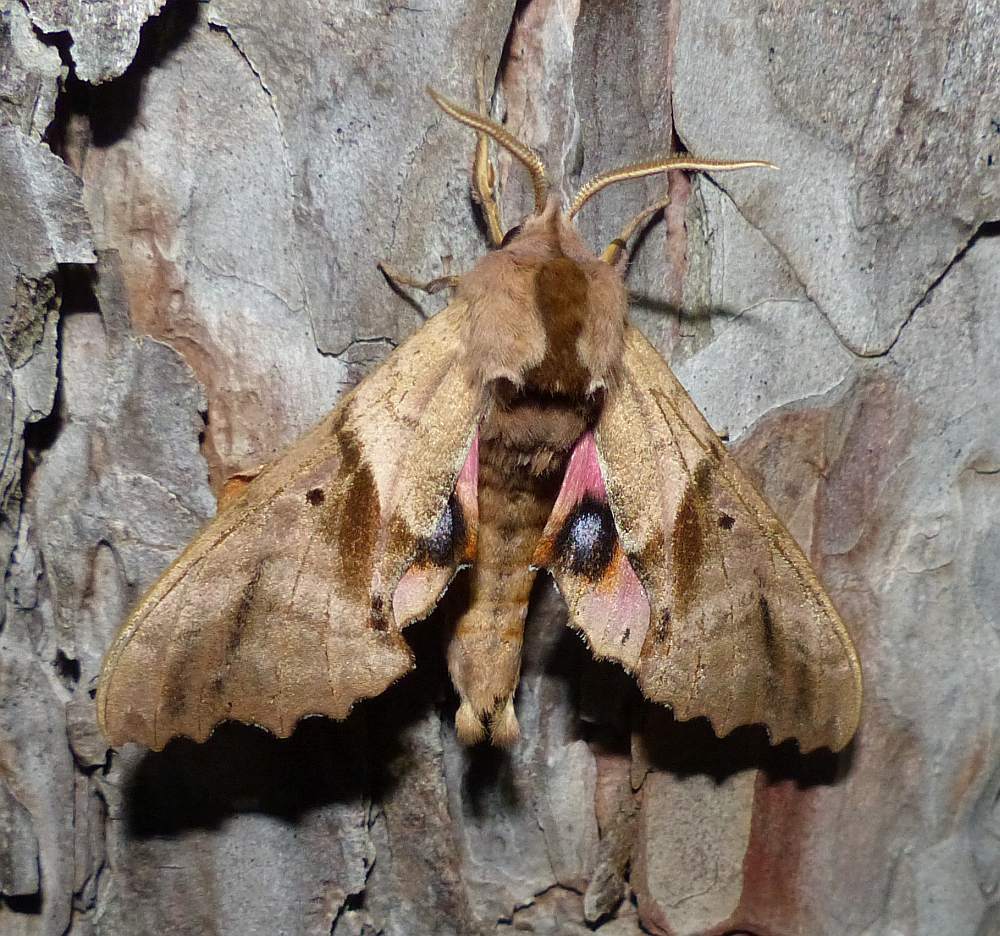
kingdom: Animalia
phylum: Arthropoda
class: Insecta
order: Lepidoptera
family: Sphingidae
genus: Paonias
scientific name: Paonias excaecata
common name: Blind-eyed sphinx
